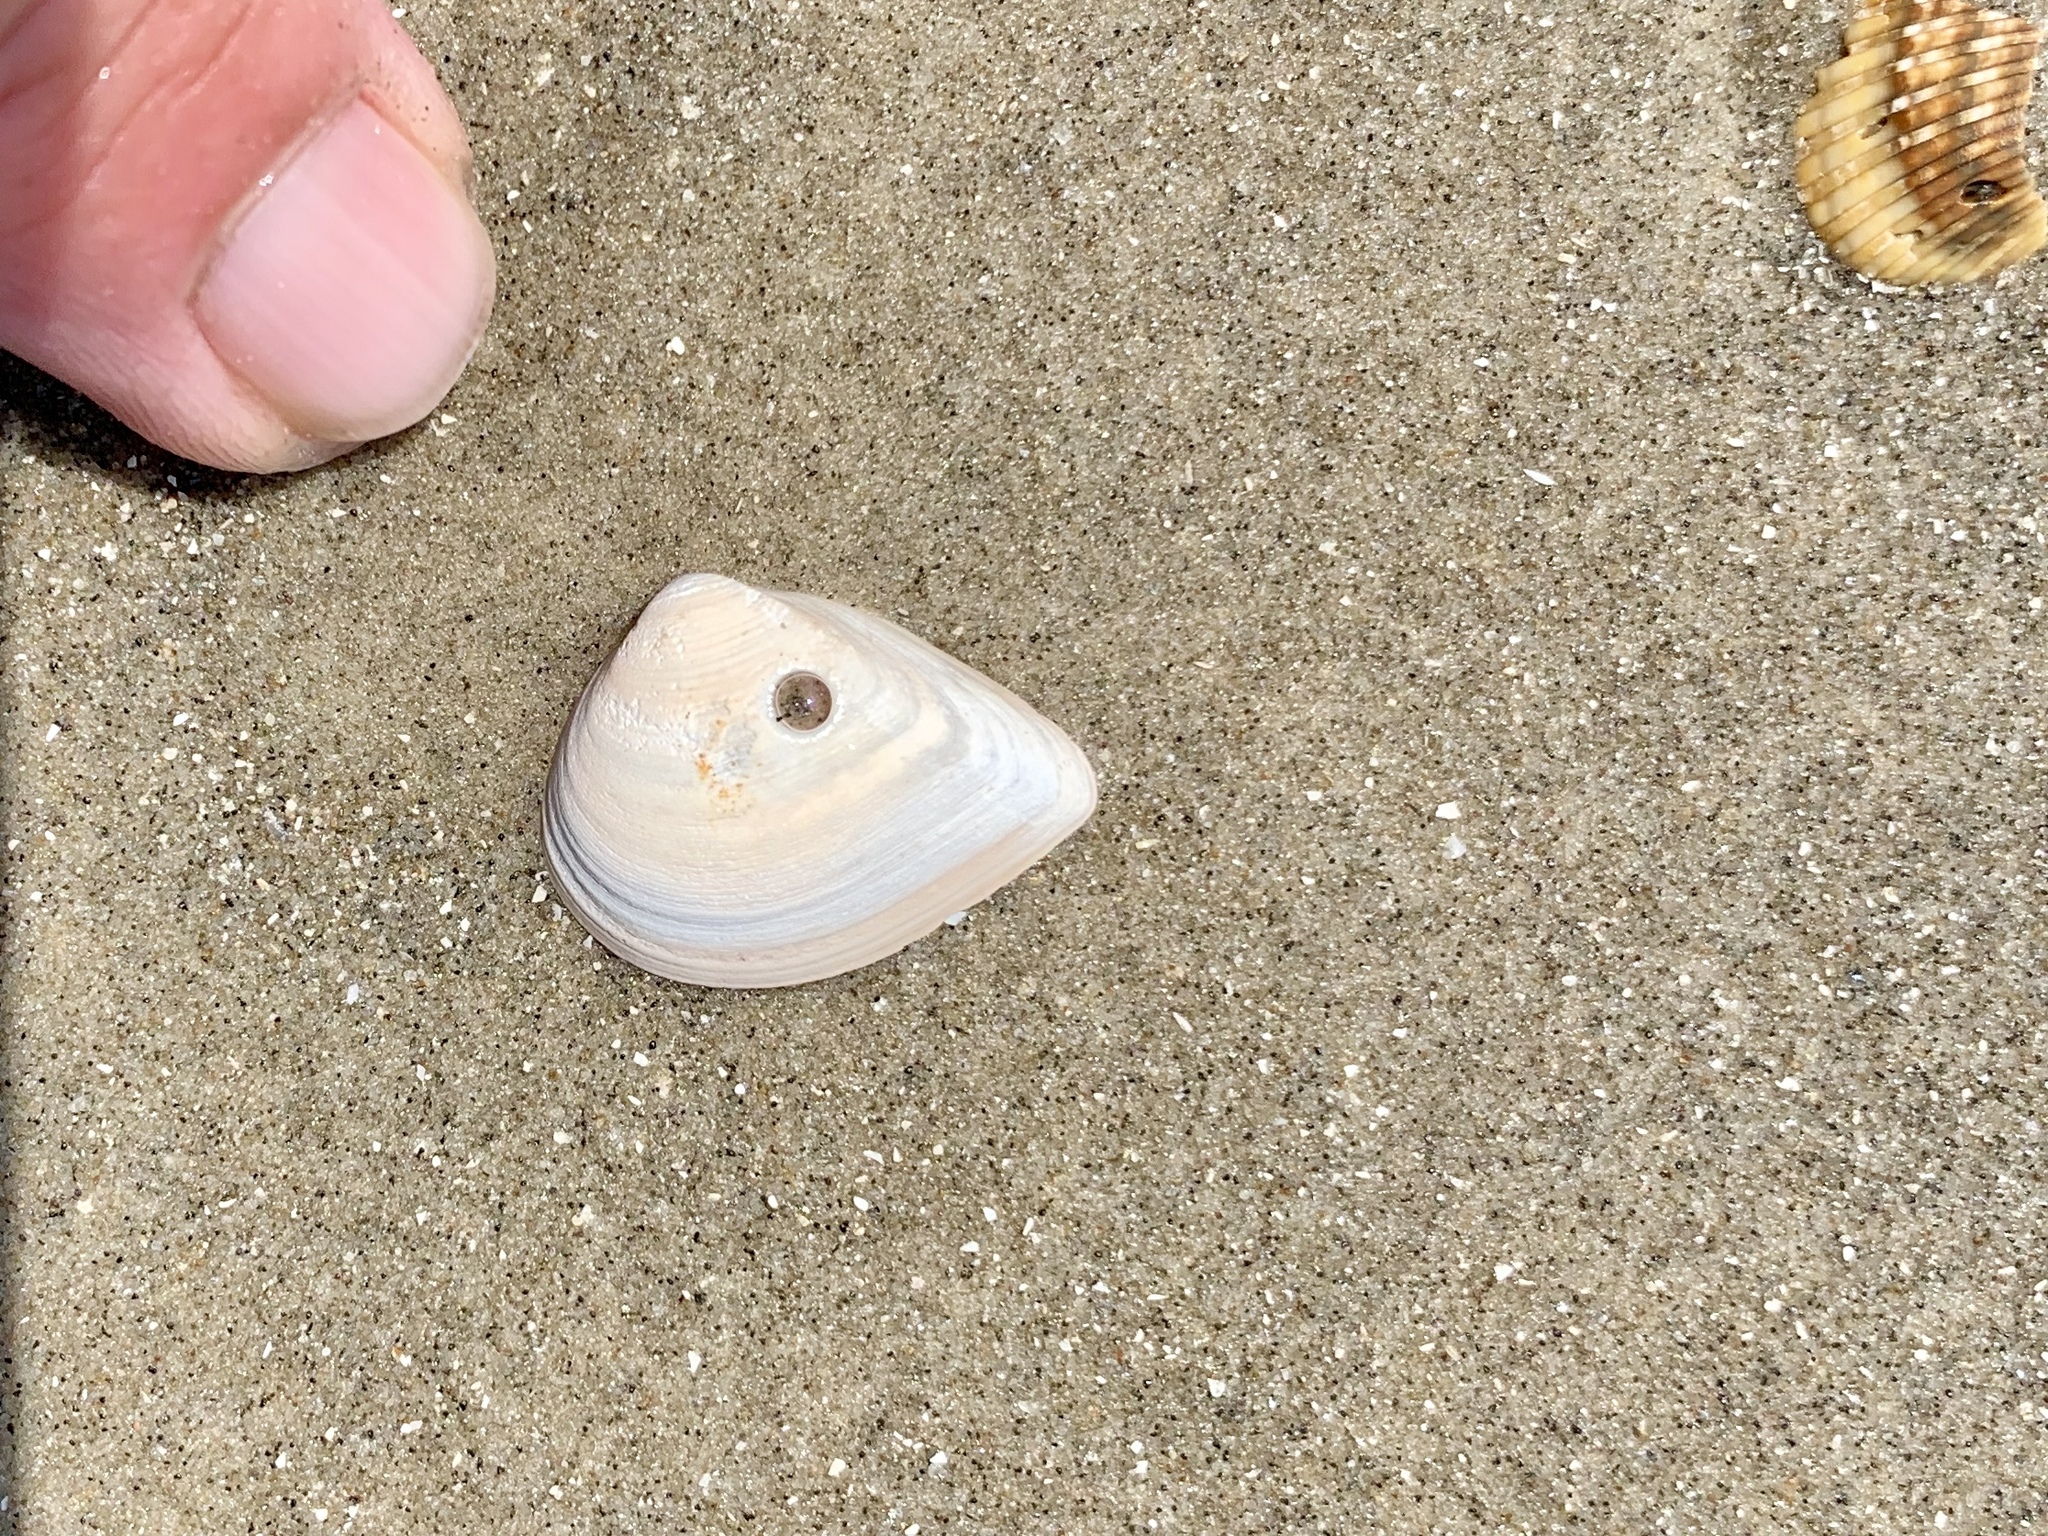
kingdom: Animalia
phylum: Mollusca
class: Bivalvia
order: Venerida
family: Mactridae
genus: Rangia
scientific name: Rangia flexuosa
